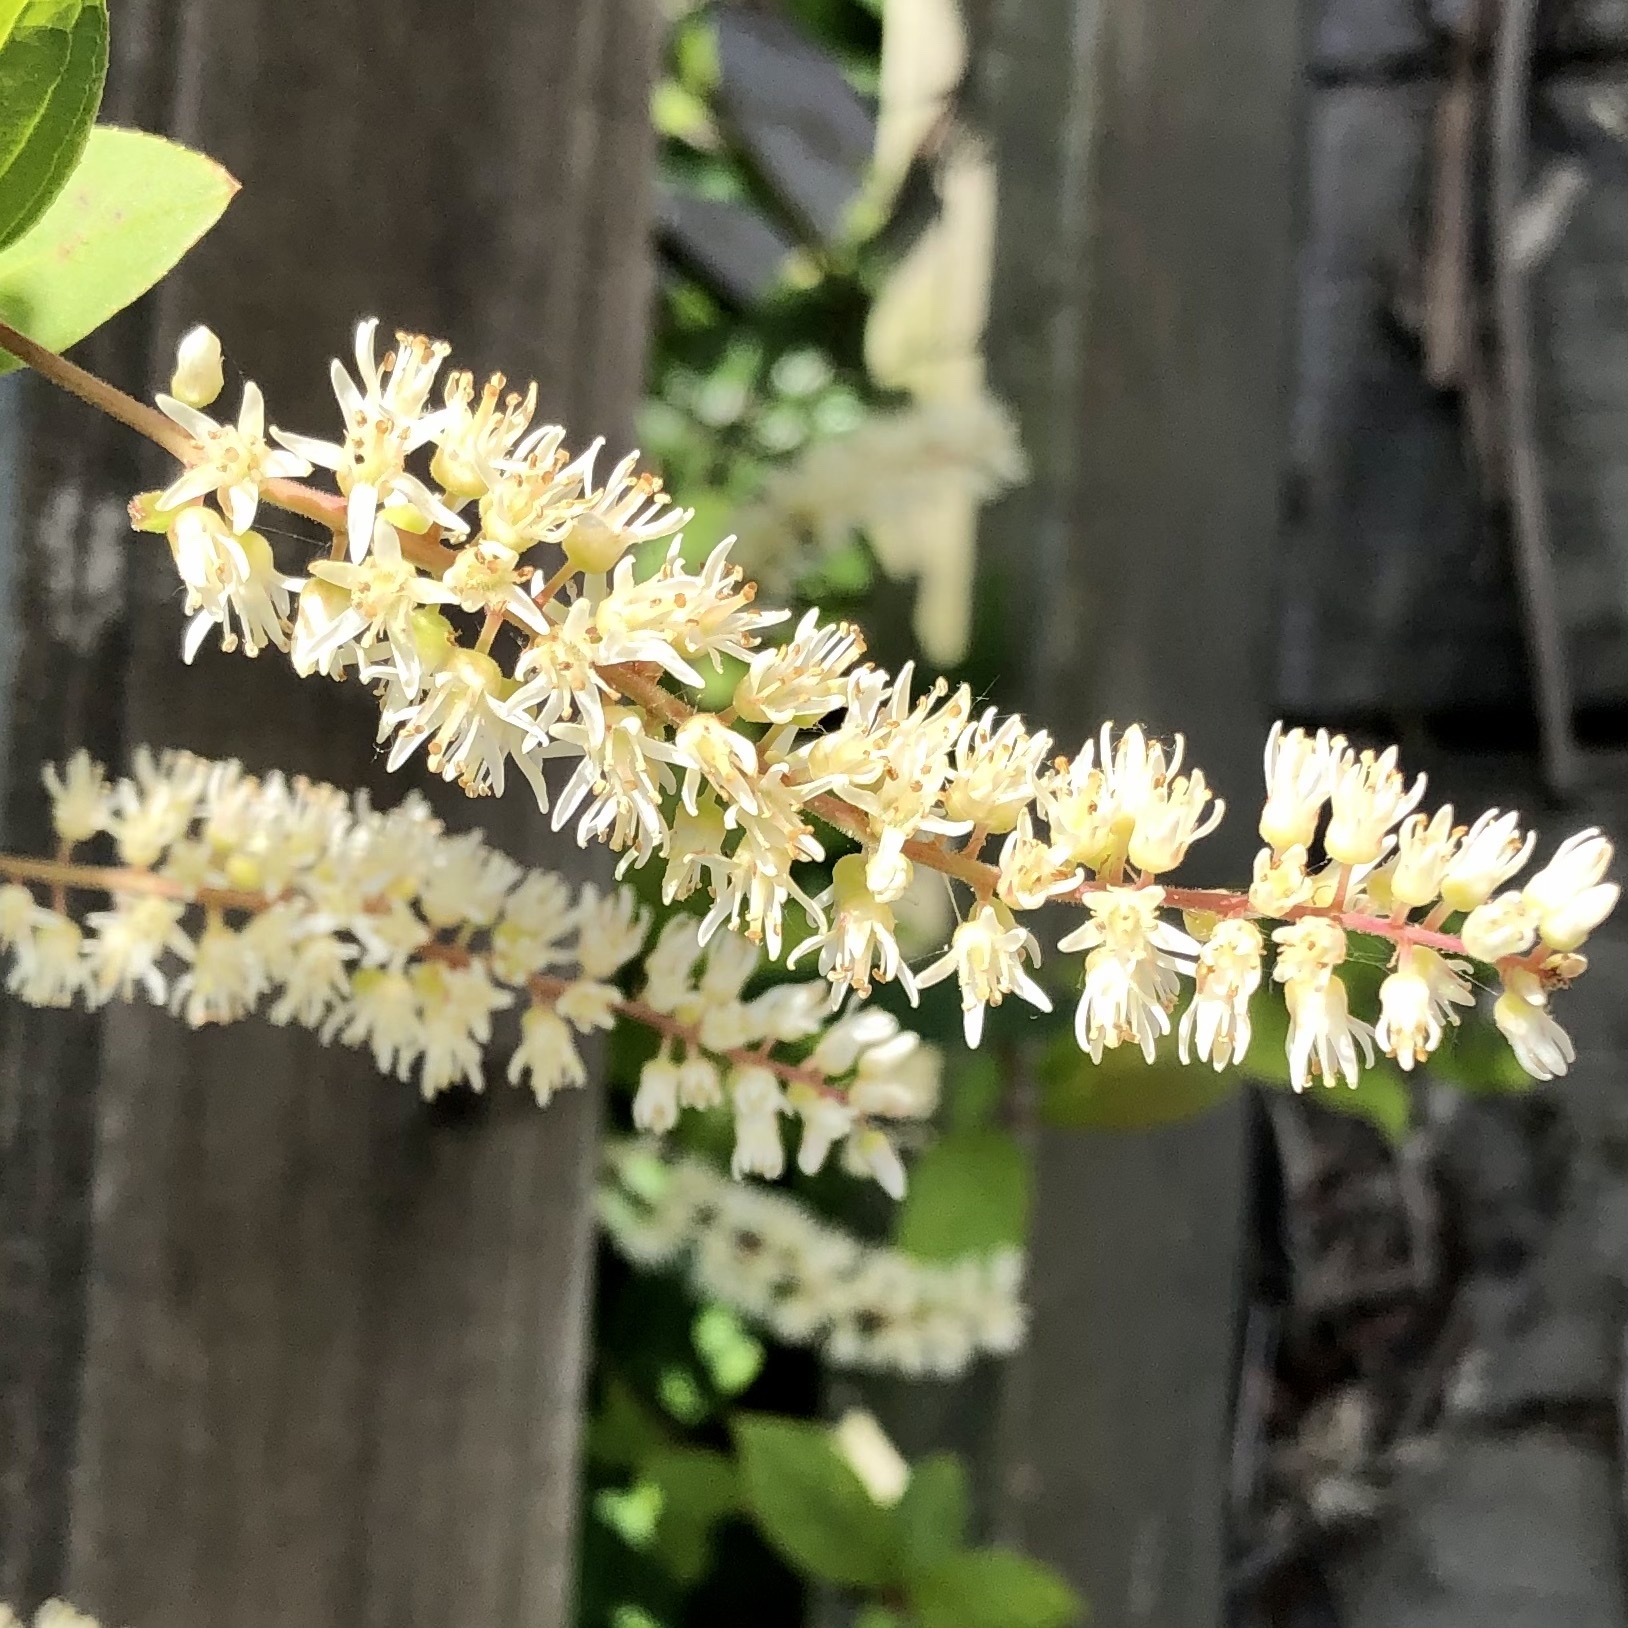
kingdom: Plantae
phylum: Tracheophyta
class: Magnoliopsida
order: Saxifragales
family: Iteaceae
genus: Itea
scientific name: Itea virginica
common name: Sweetspire
